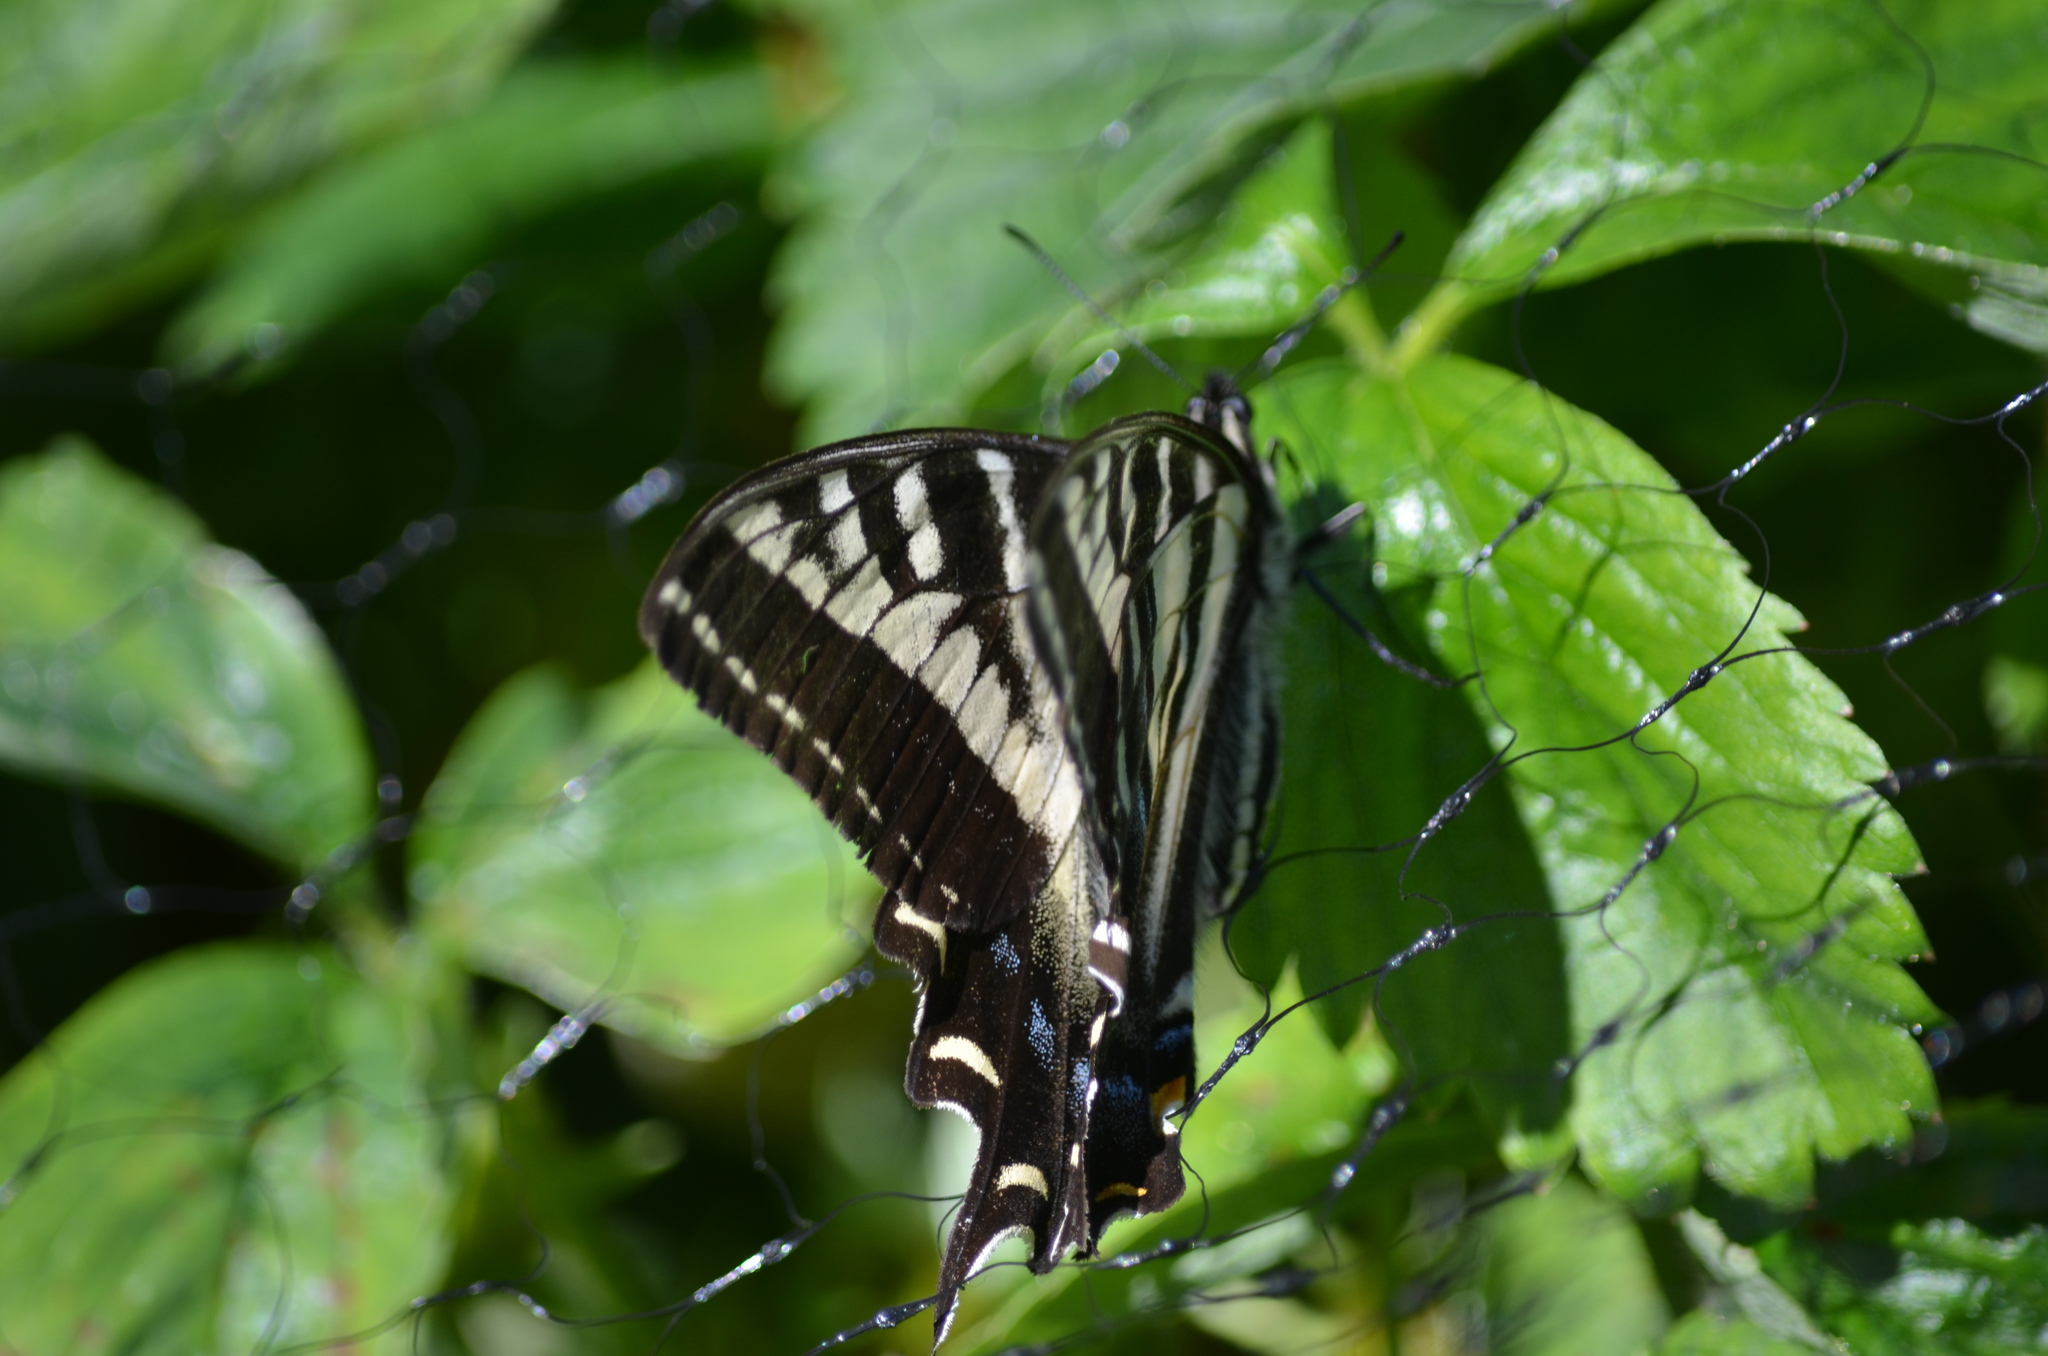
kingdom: Animalia
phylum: Arthropoda
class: Insecta
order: Lepidoptera
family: Papilionidae
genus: Papilio
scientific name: Papilio eurymedon
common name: Pale tiger swallowtail
